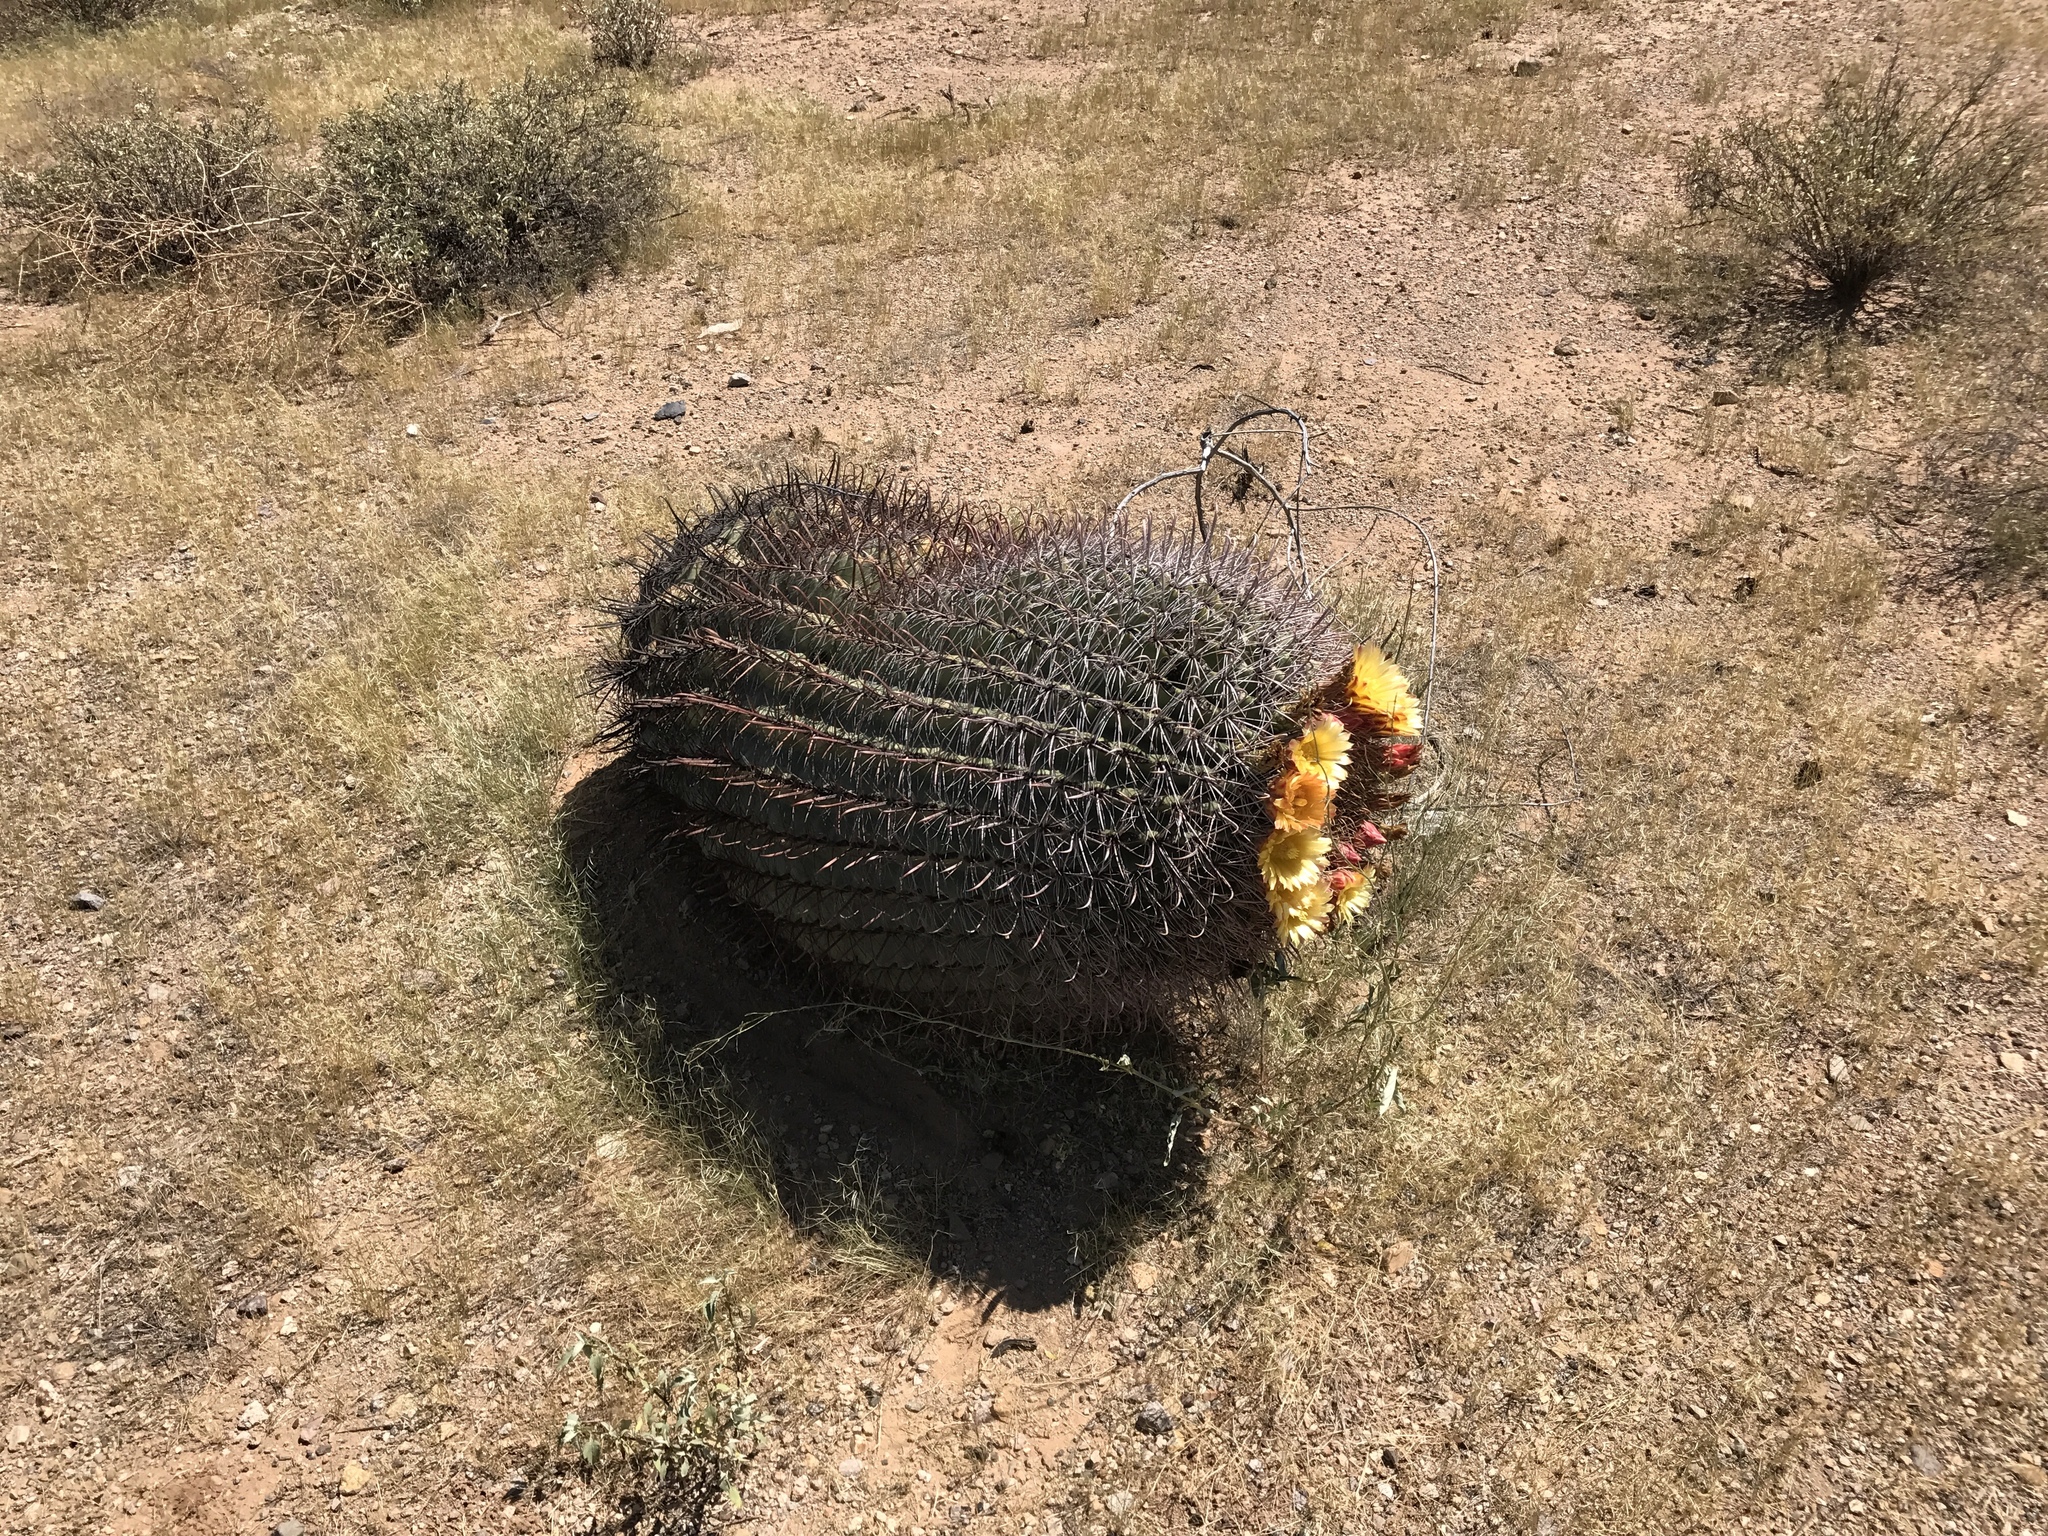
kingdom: Plantae
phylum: Tracheophyta
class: Magnoliopsida
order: Caryophyllales
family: Cactaceae
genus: Ferocactus
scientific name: Ferocactus wislizeni
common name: Candy barrel cactus
